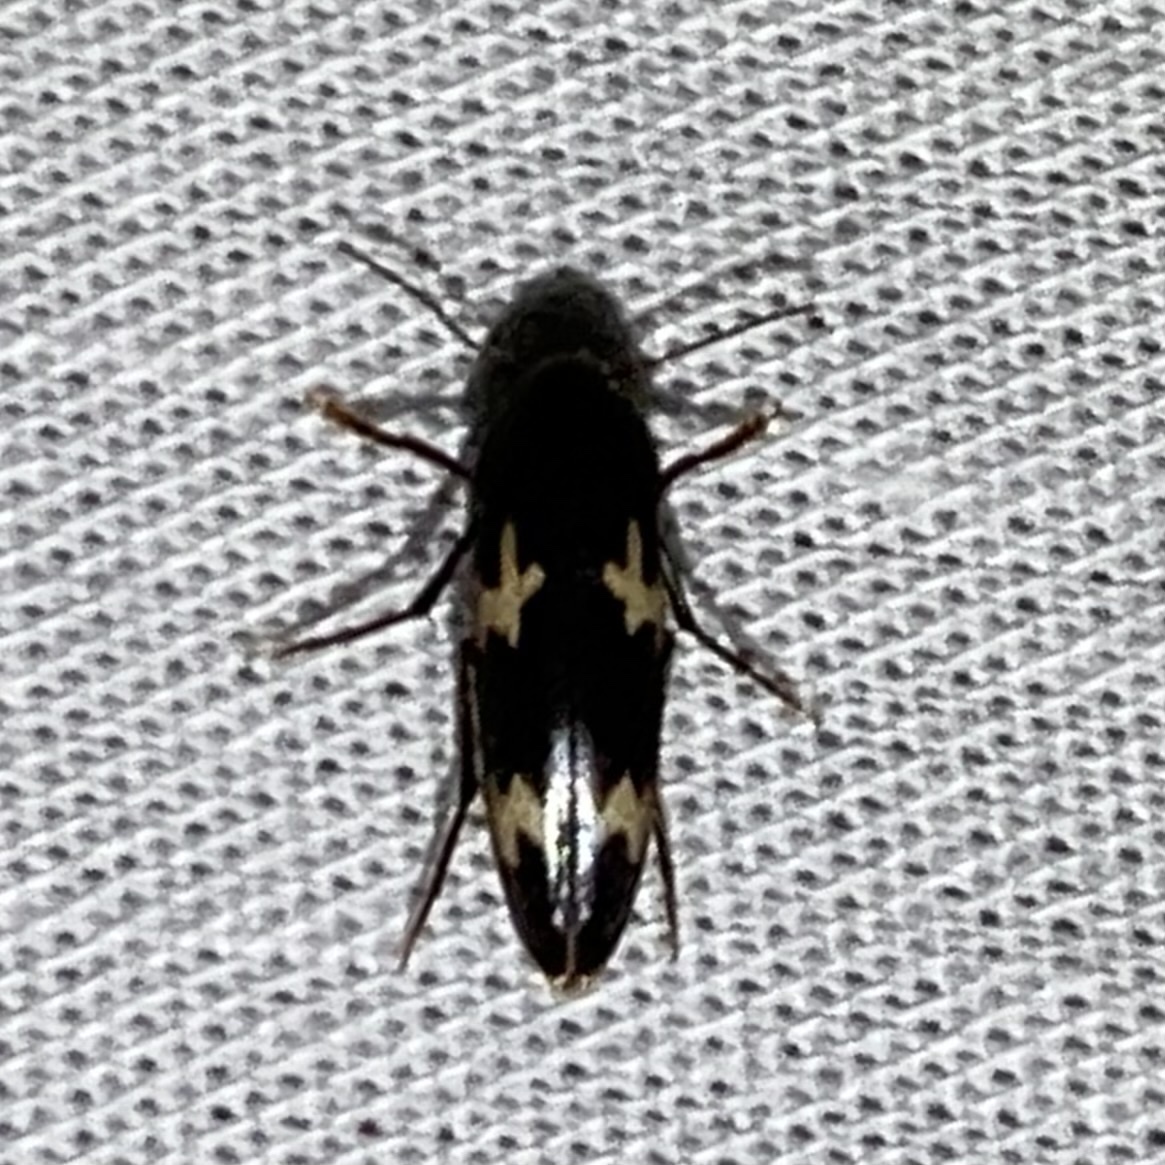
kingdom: Animalia
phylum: Arthropoda
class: Insecta
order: Coleoptera
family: Melandryidae
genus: Dircaea
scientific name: Dircaea liturata
